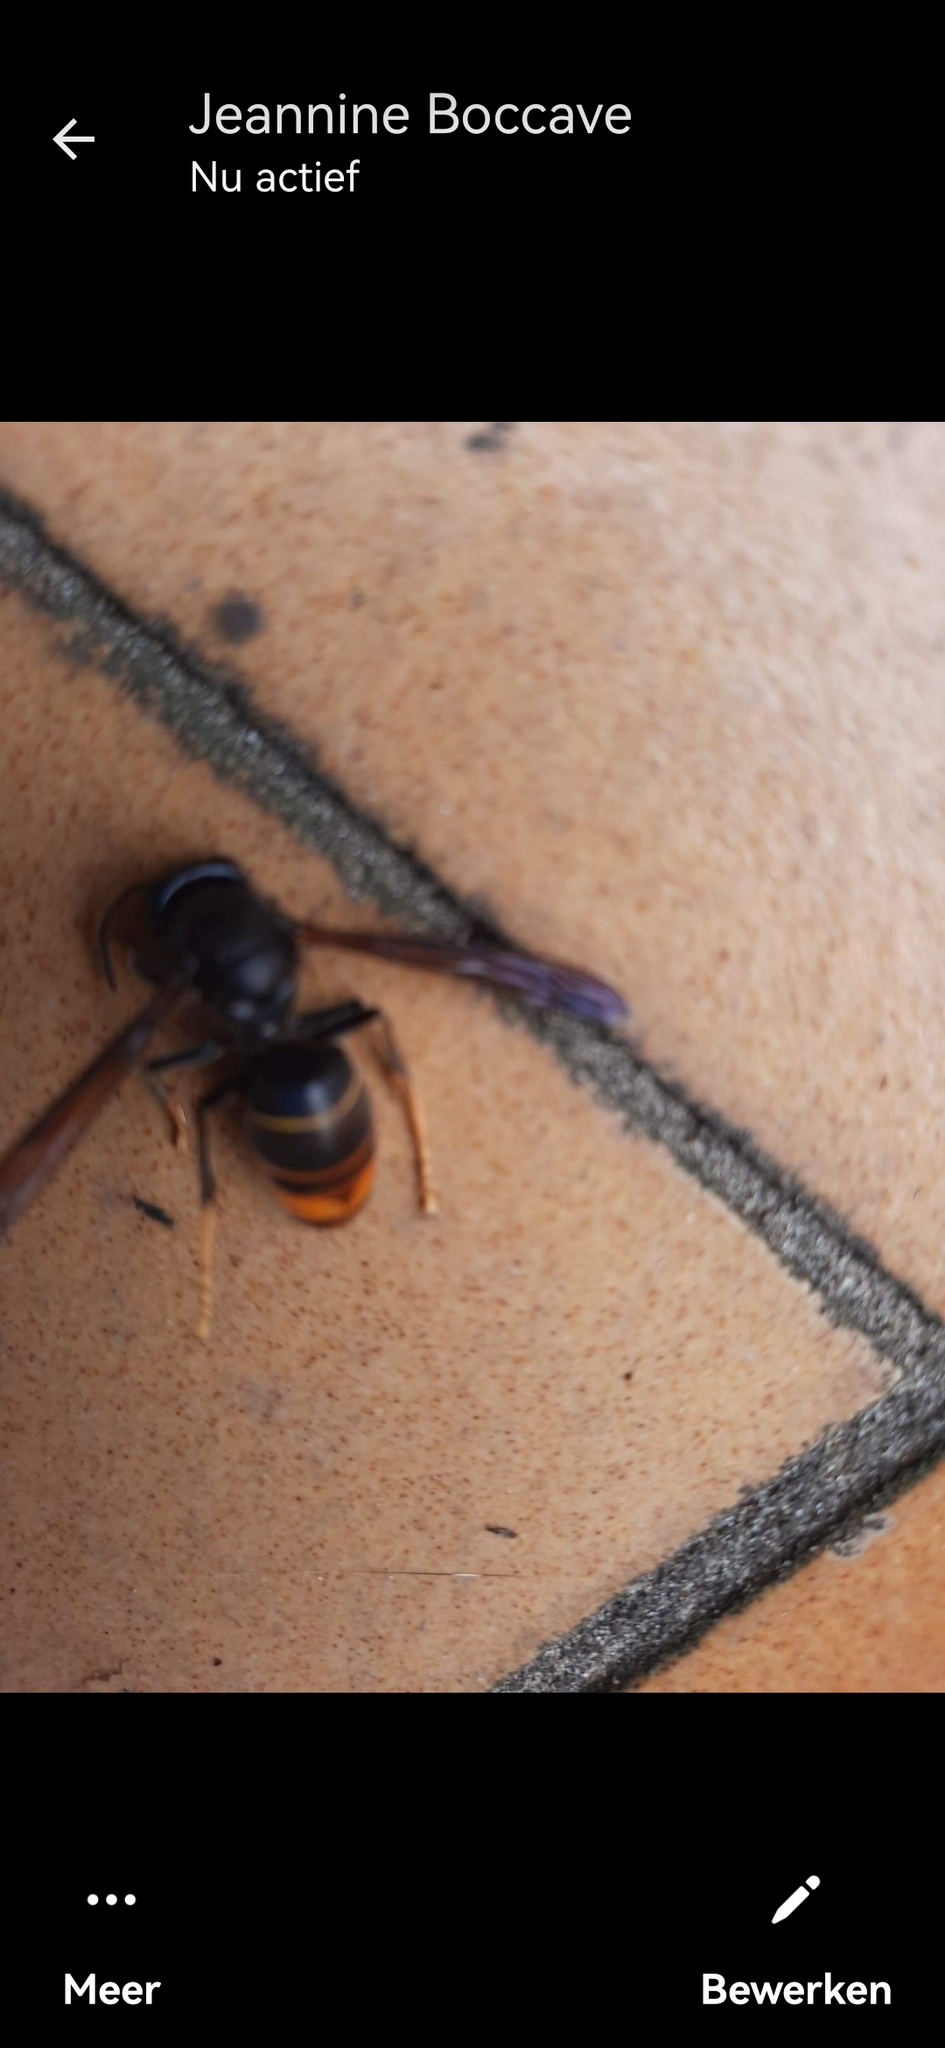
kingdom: Animalia
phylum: Arthropoda
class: Insecta
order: Hymenoptera
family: Vespidae
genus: Vespa
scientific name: Vespa velutina
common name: Asian hornet
